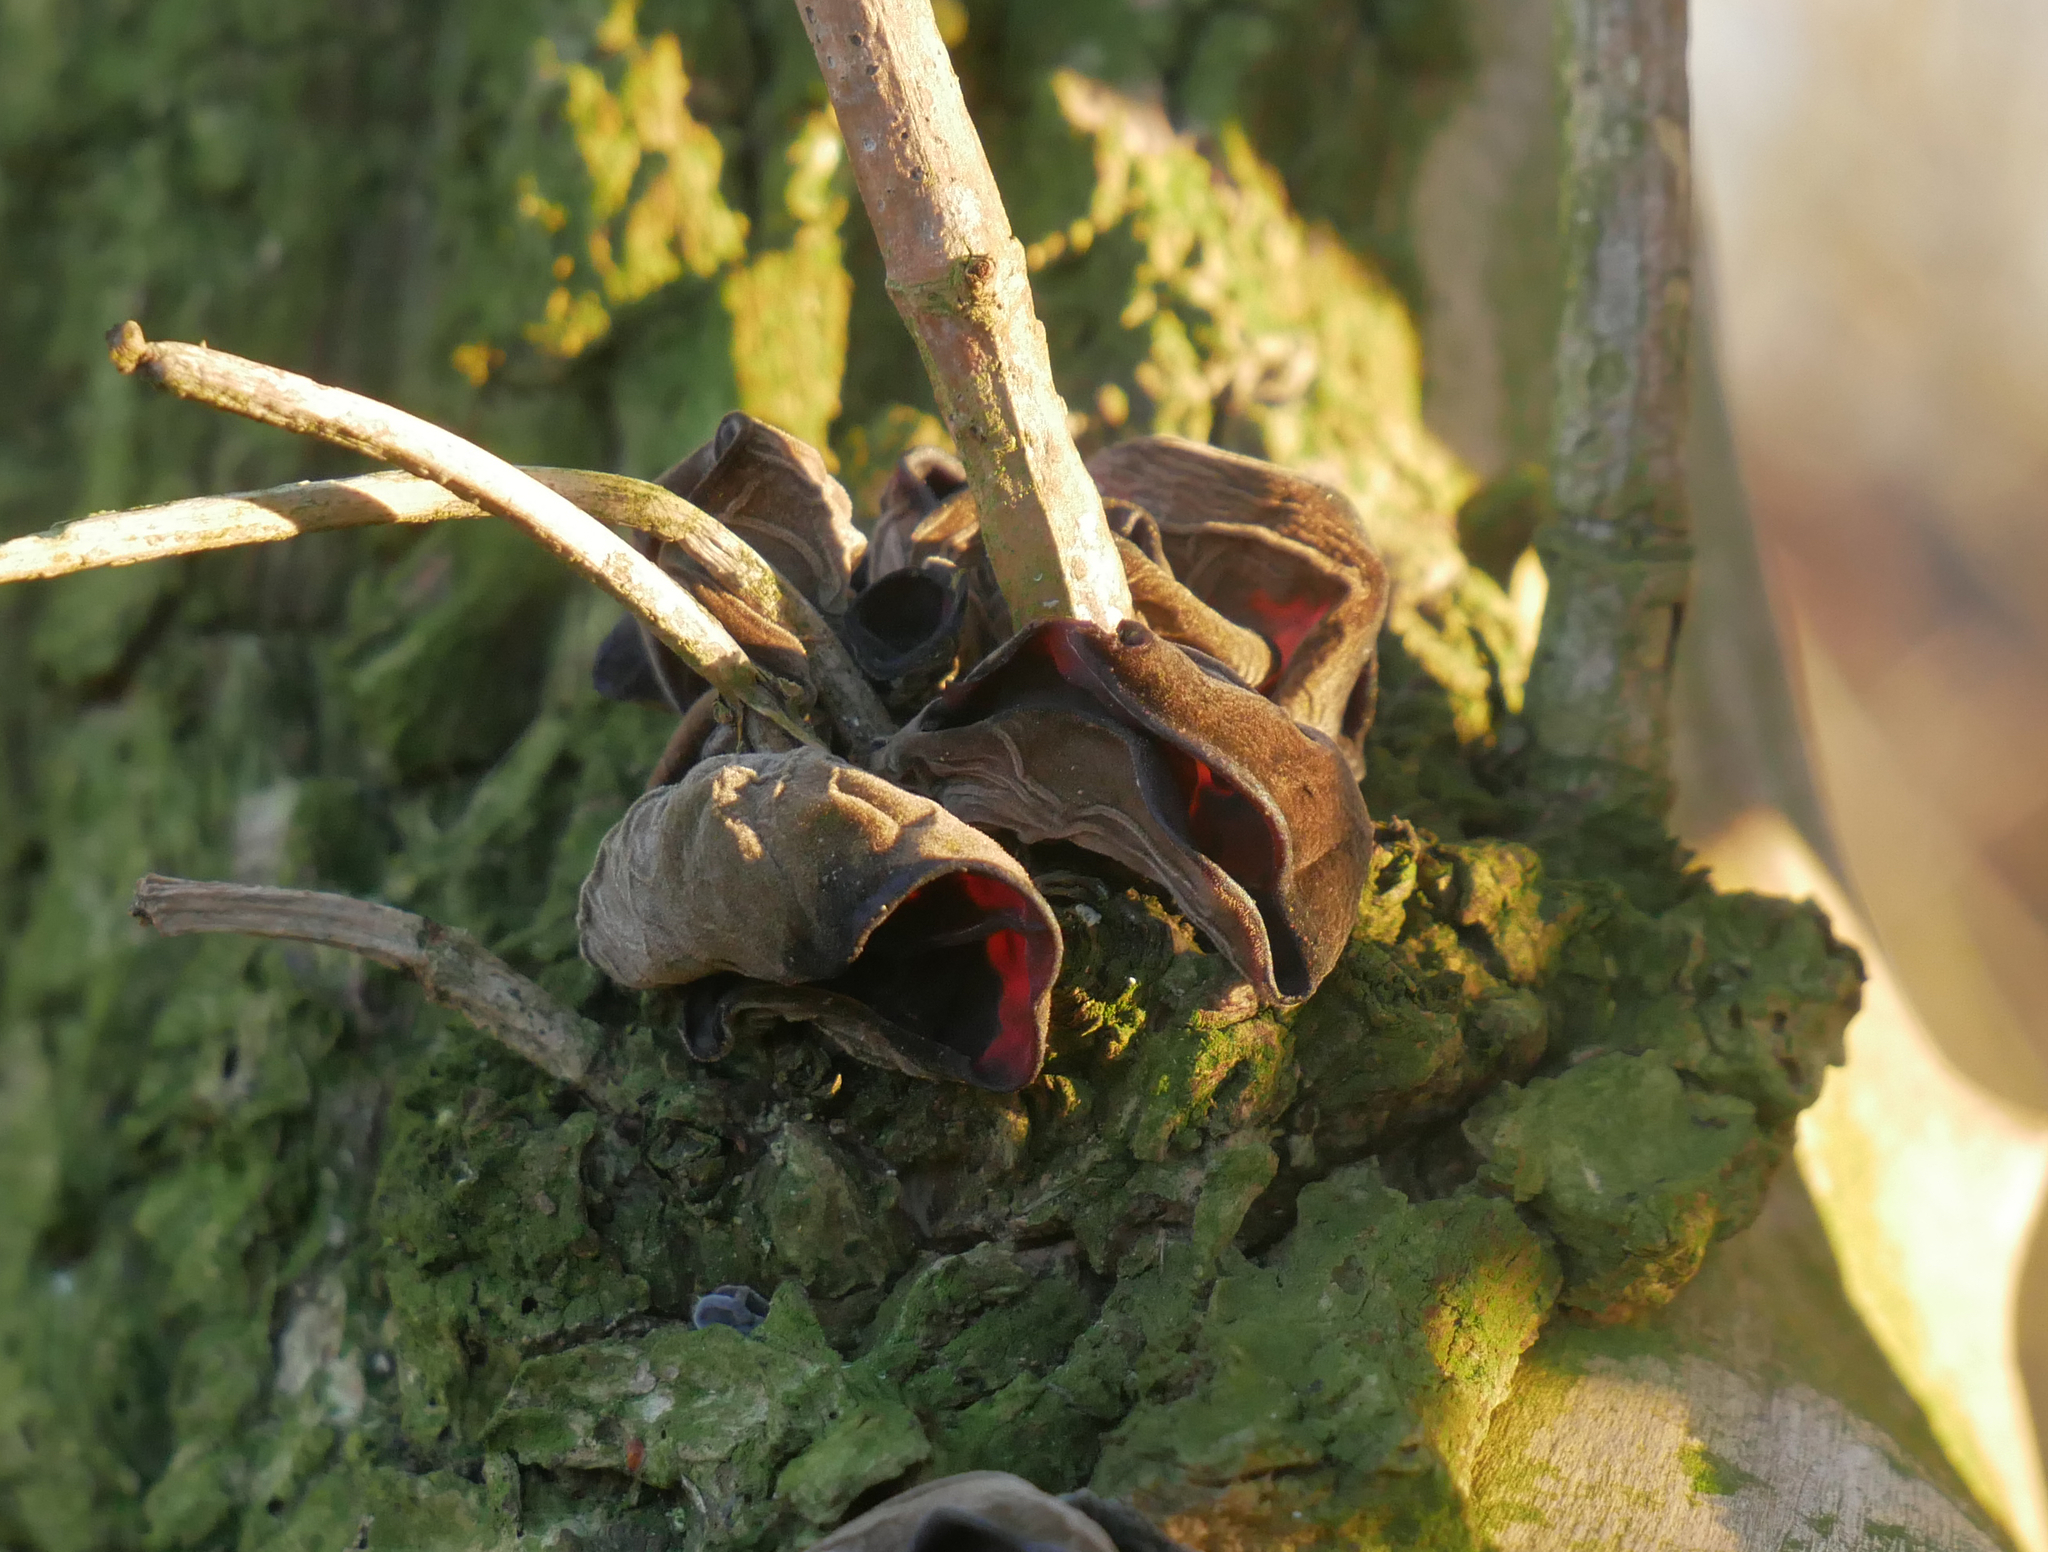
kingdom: Fungi
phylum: Basidiomycota
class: Agaricomycetes
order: Auriculariales
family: Auriculariaceae
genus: Auricularia
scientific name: Auricularia auricula-judae
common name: Jelly ear
